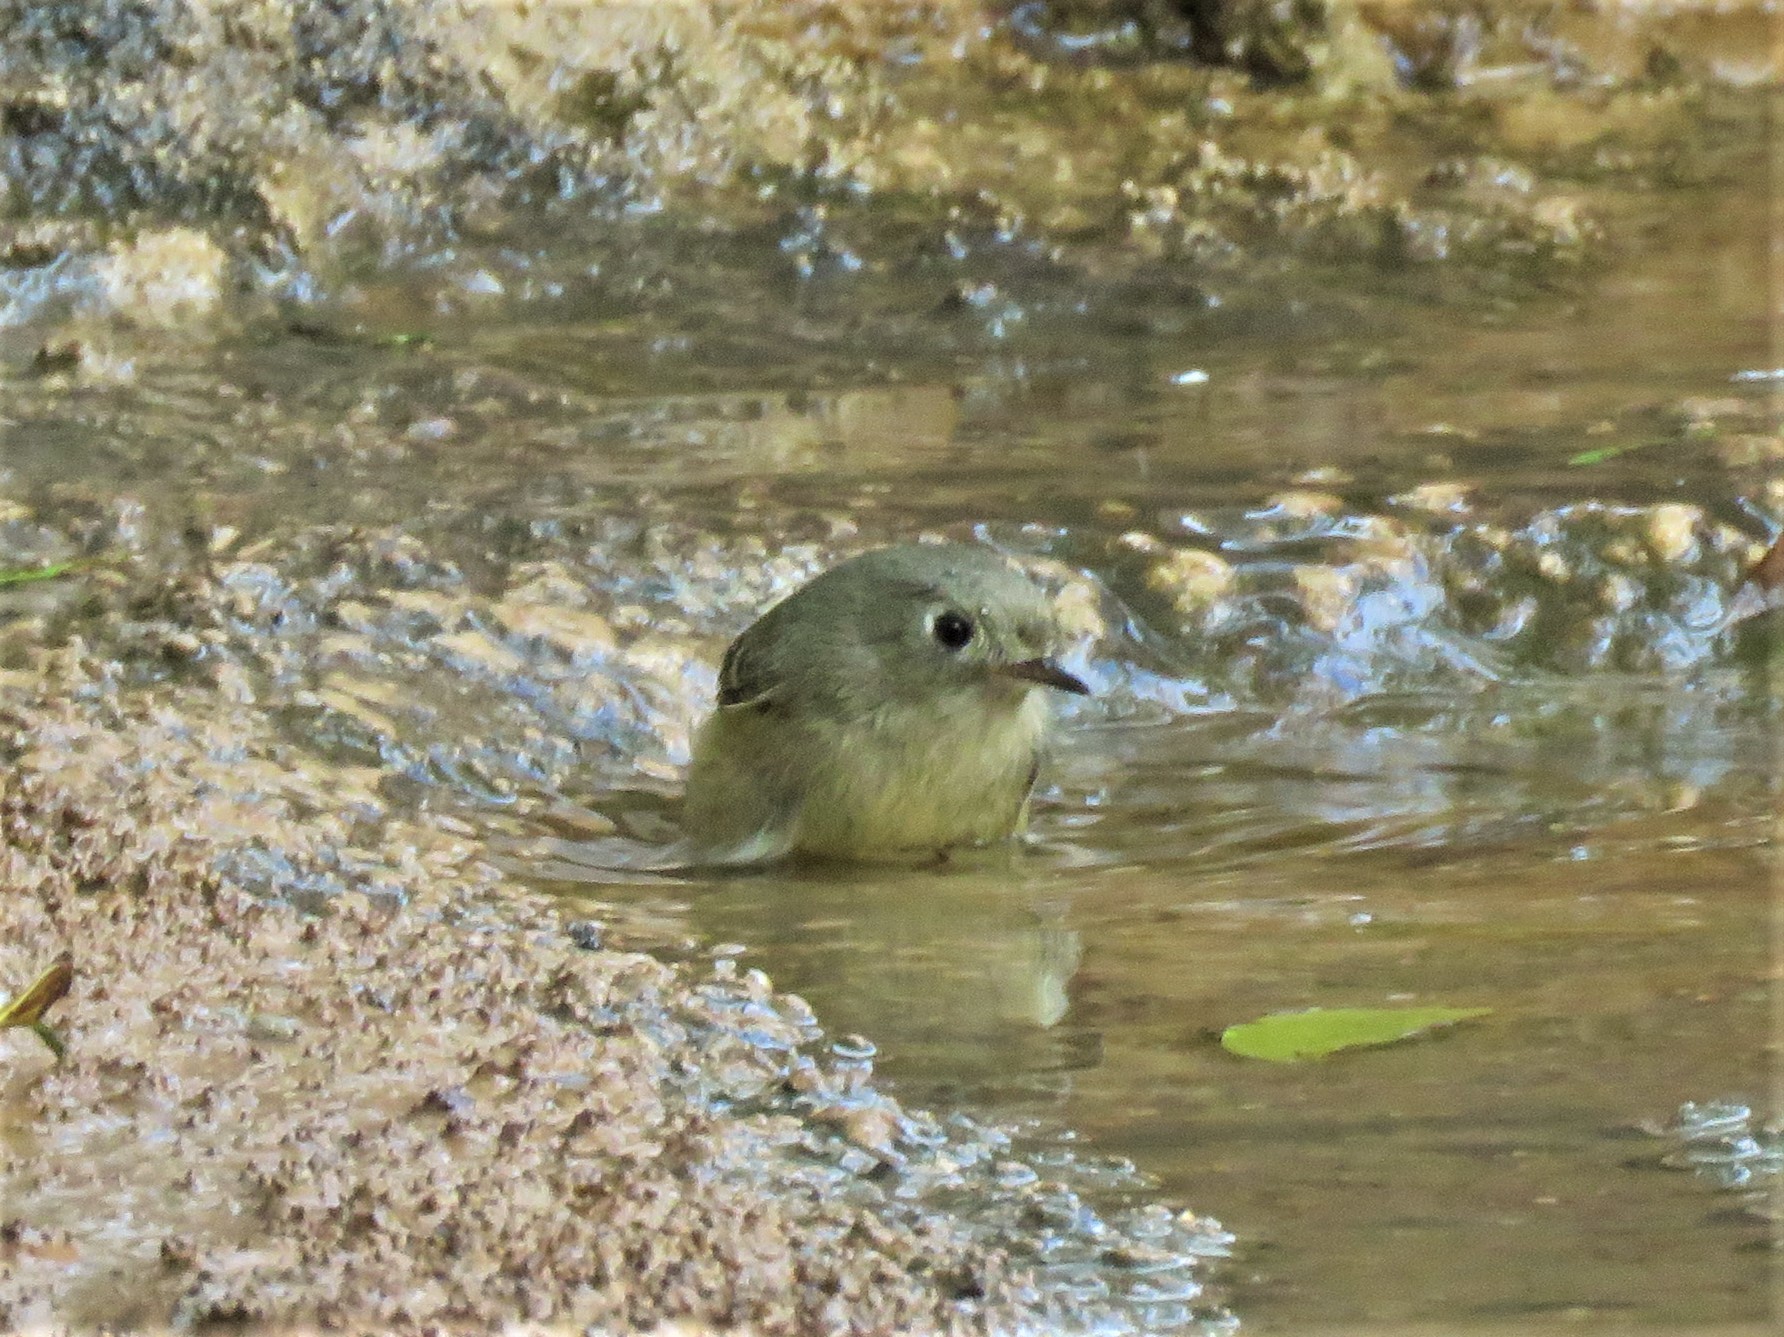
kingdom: Animalia
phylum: Chordata
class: Aves
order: Passeriformes
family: Regulidae
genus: Regulus
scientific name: Regulus calendula
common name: Ruby-crowned kinglet
